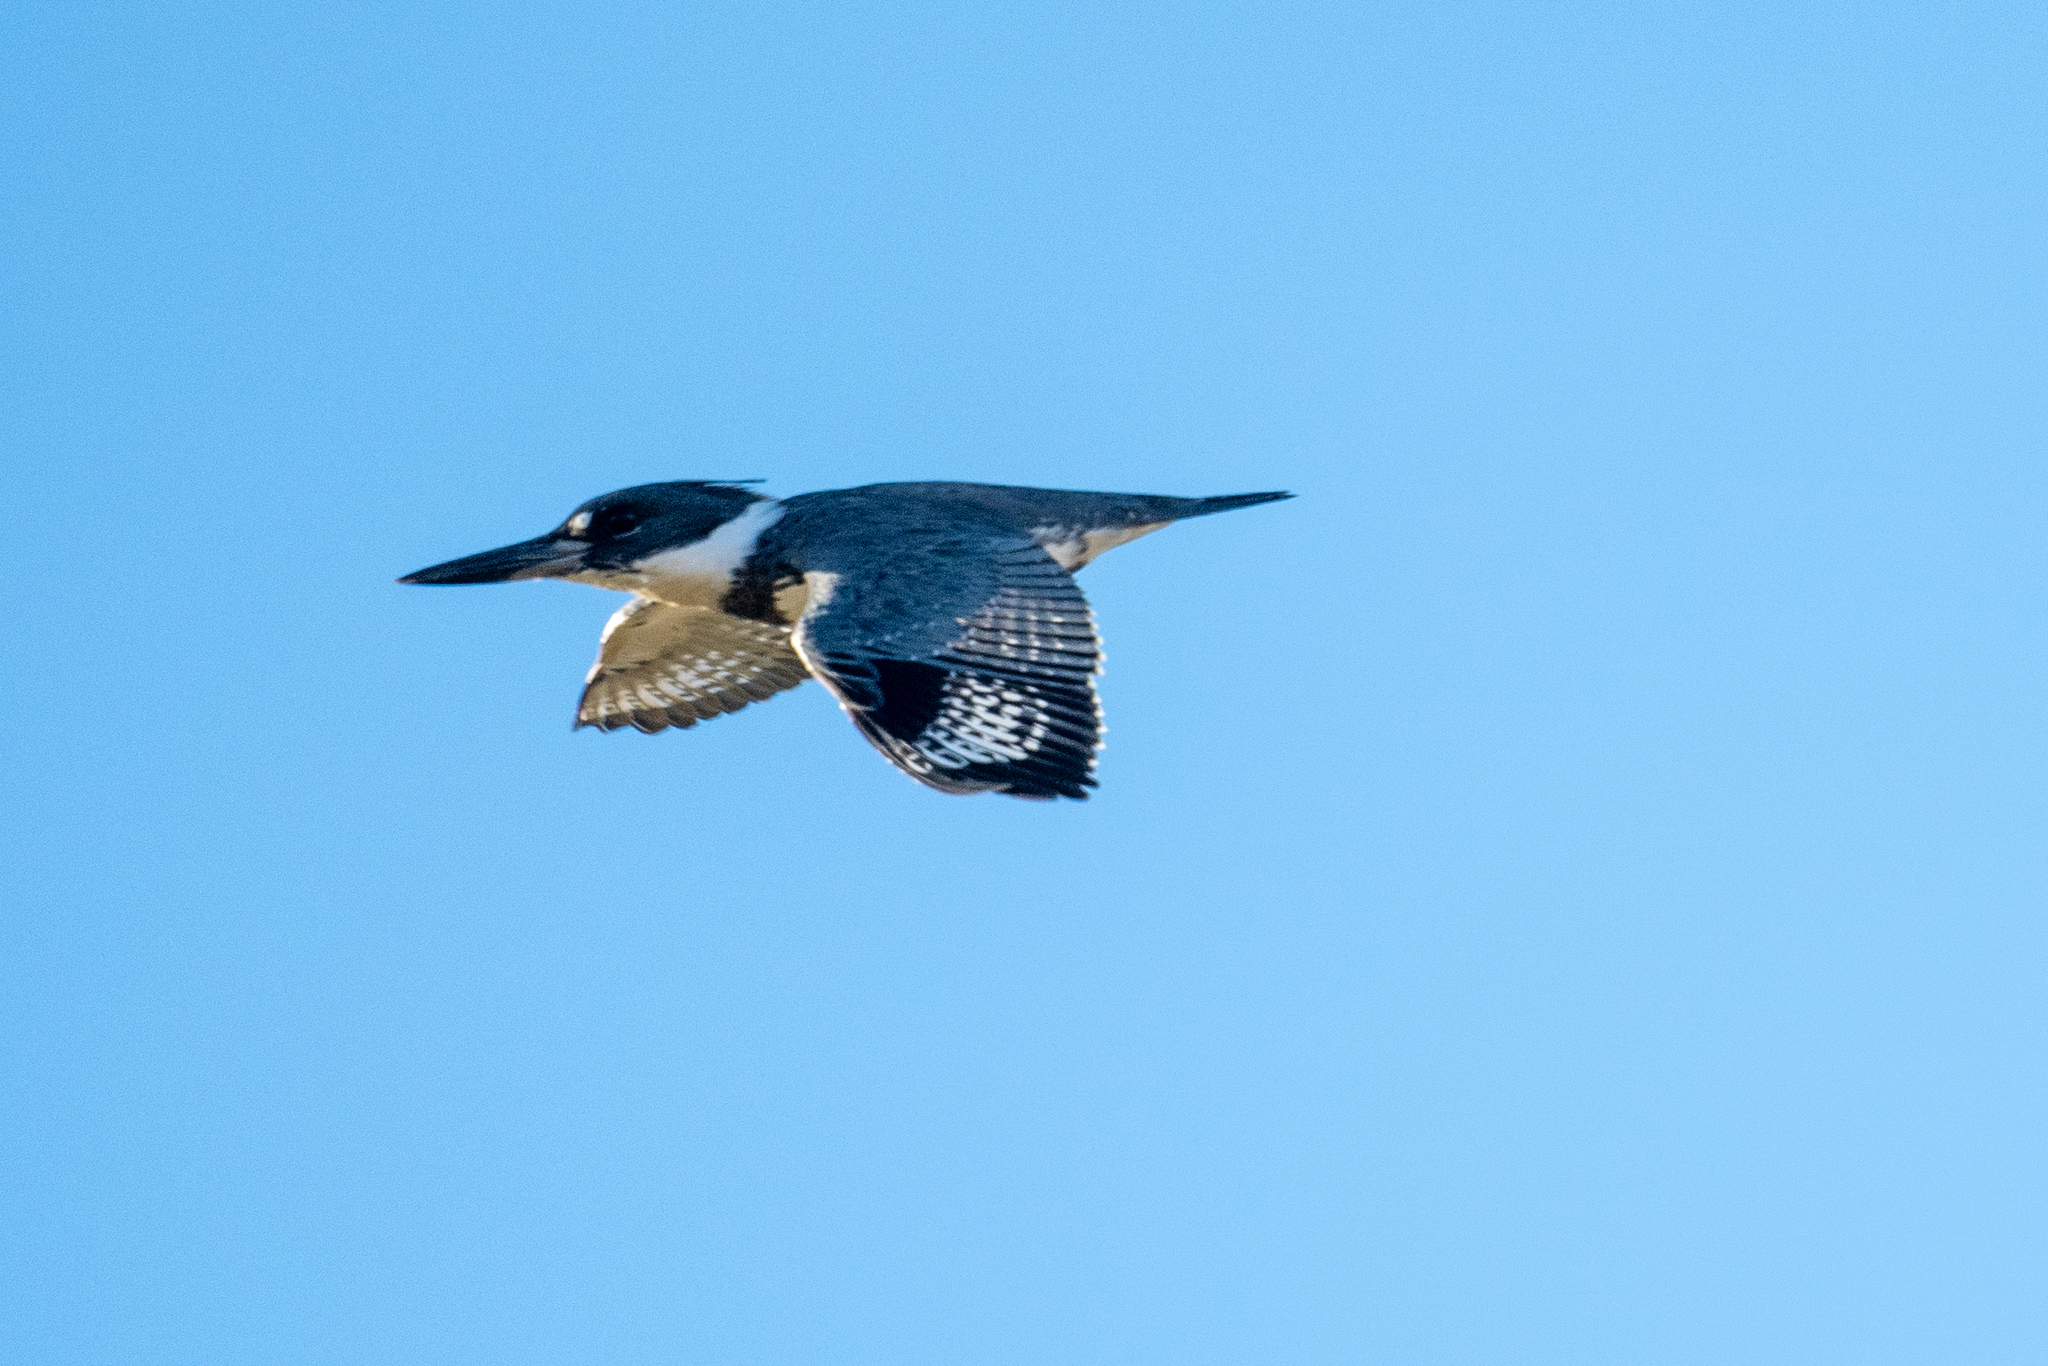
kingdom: Animalia
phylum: Chordata
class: Aves
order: Coraciiformes
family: Alcedinidae
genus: Megaceryle
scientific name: Megaceryle alcyon
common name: Belted kingfisher
